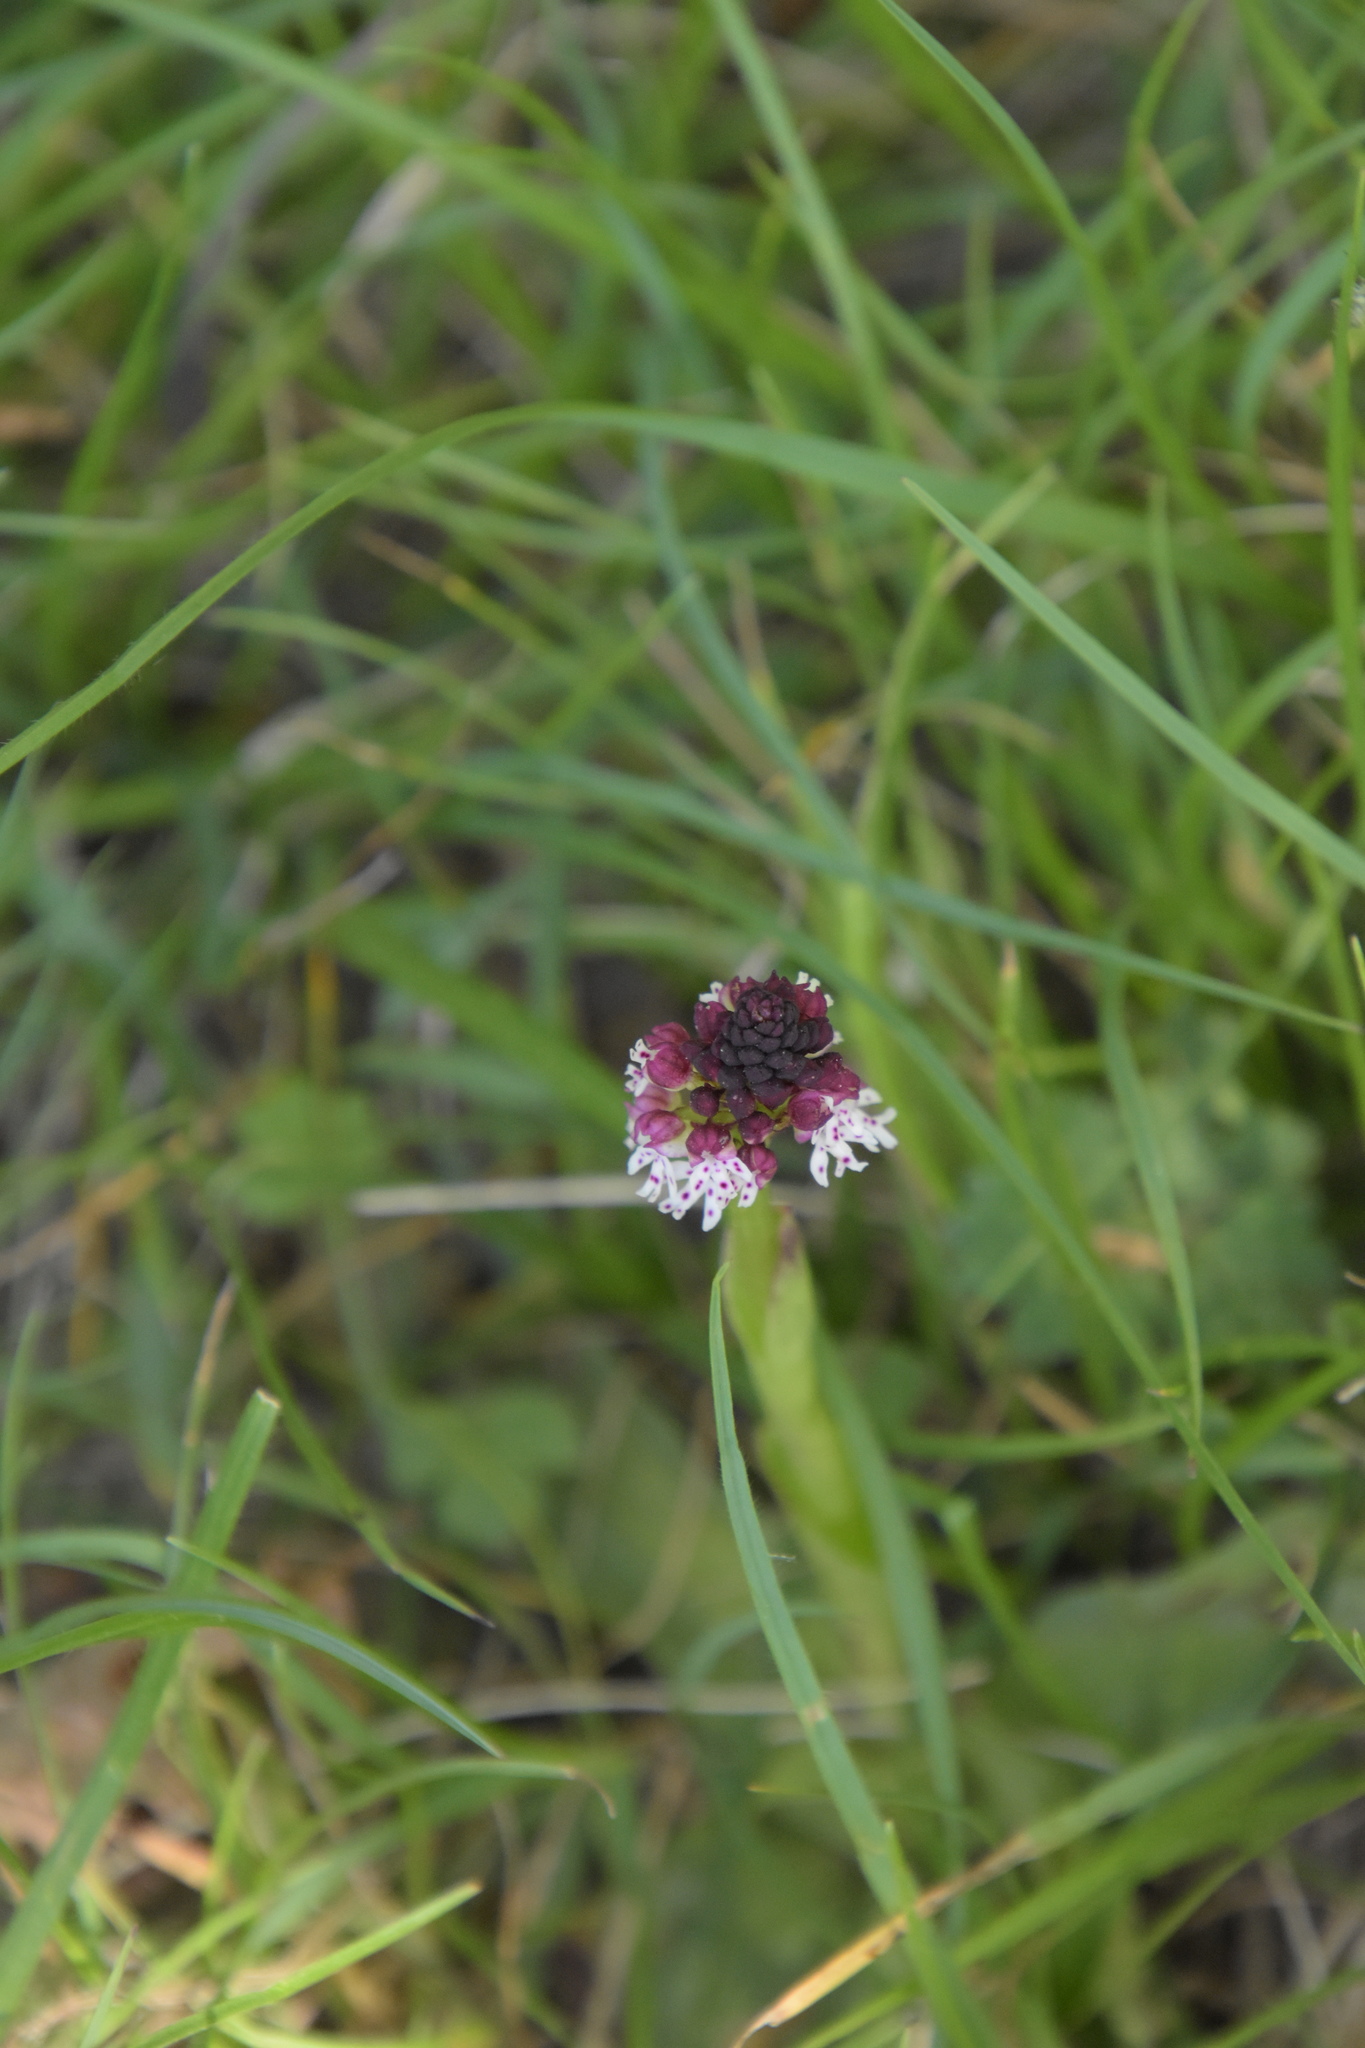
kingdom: Plantae
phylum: Tracheophyta
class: Liliopsida
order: Asparagales
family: Orchidaceae
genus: Neotinea
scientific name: Neotinea ustulata
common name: Burnt orchid
